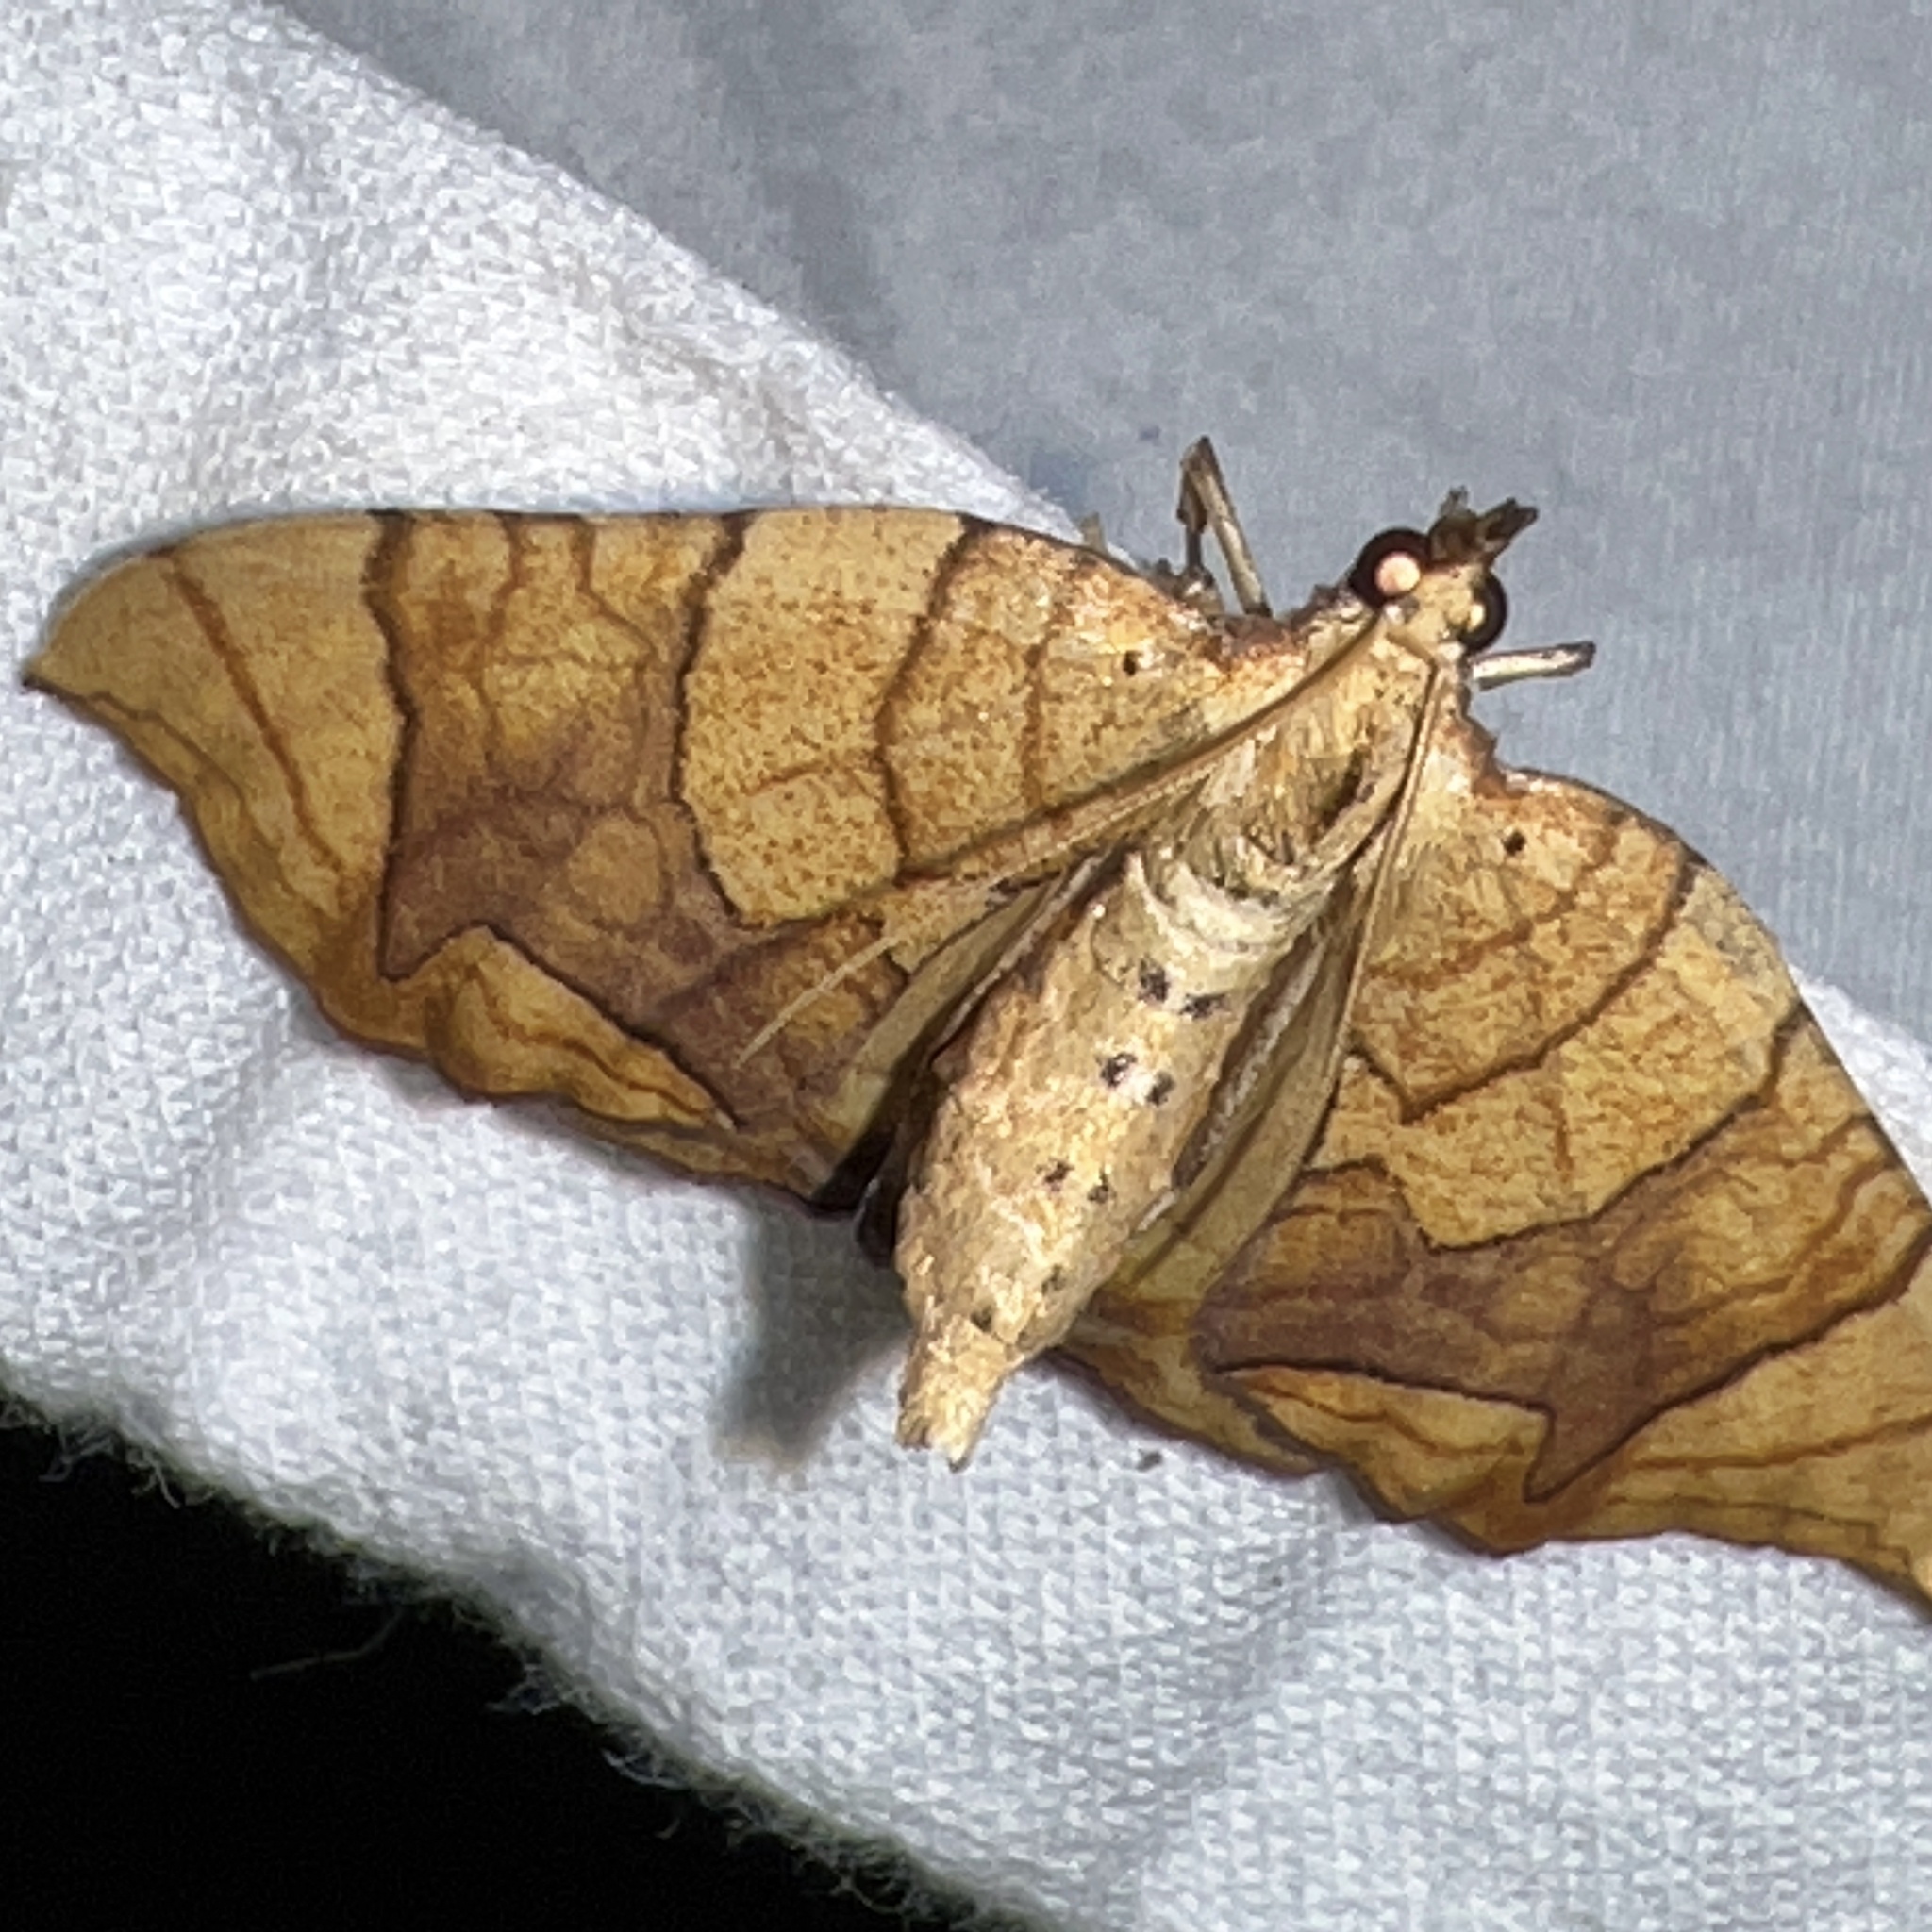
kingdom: Animalia
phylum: Arthropoda
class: Insecta
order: Lepidoptera
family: Geometridae
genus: Eulithis
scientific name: Eulithis diversilineata
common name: Grapevine looper
